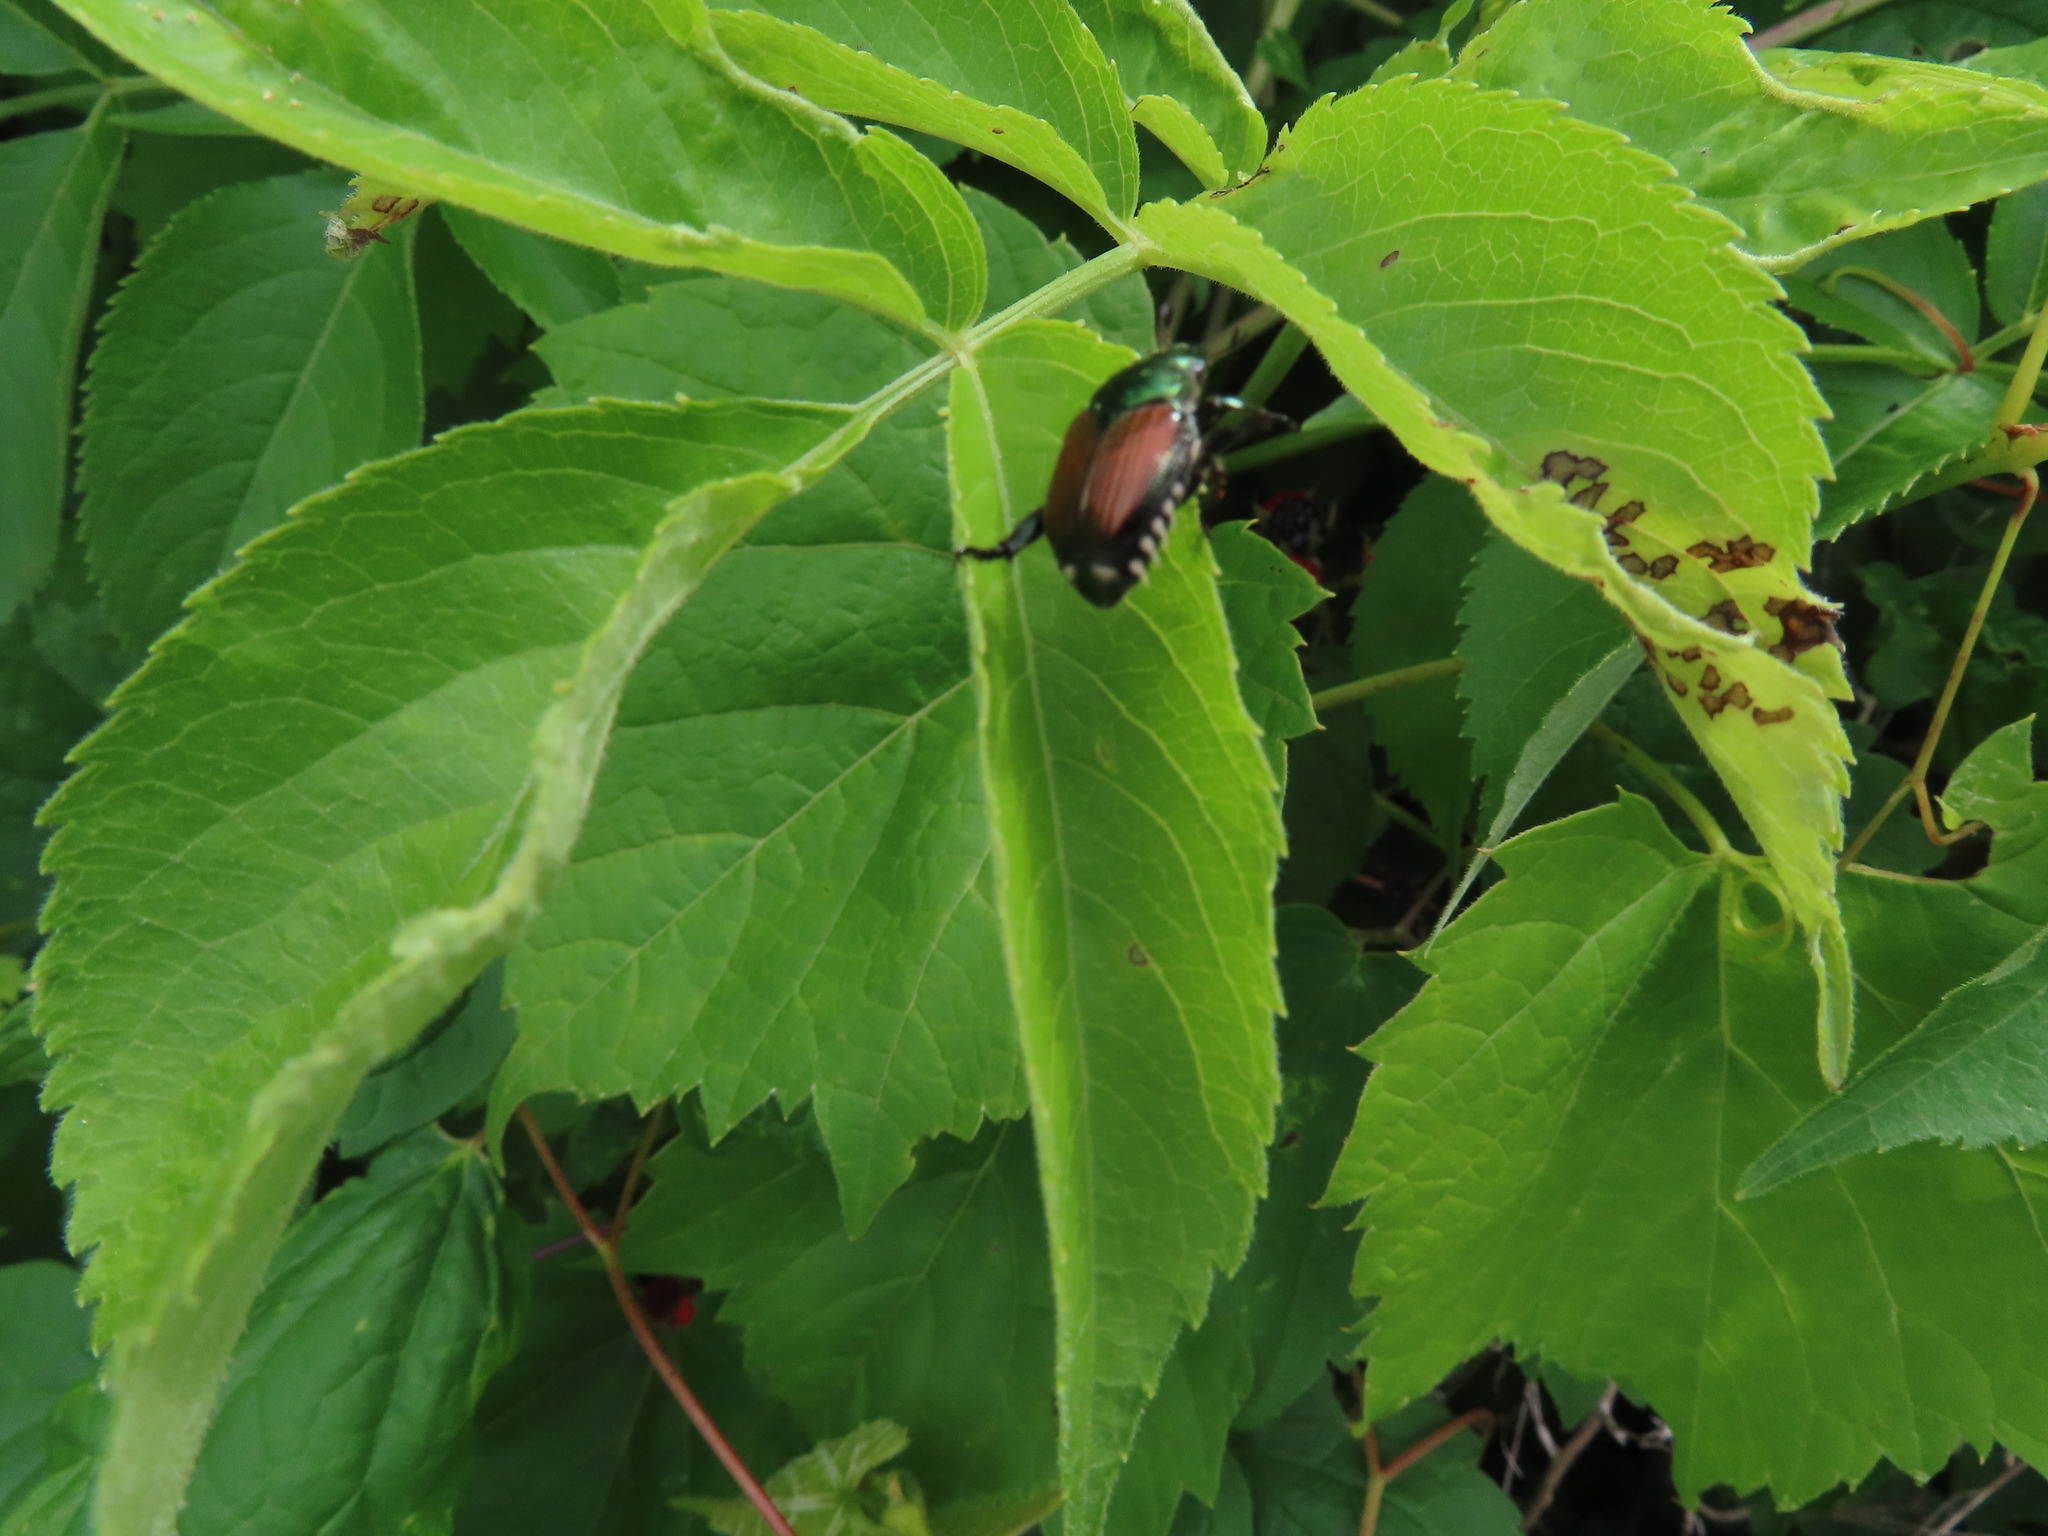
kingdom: Animalia
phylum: Arthropoda
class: Insecta
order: Coleoptera
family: Scarabaeidae
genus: Popillia
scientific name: Popillia japonica
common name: Japanese beetle
